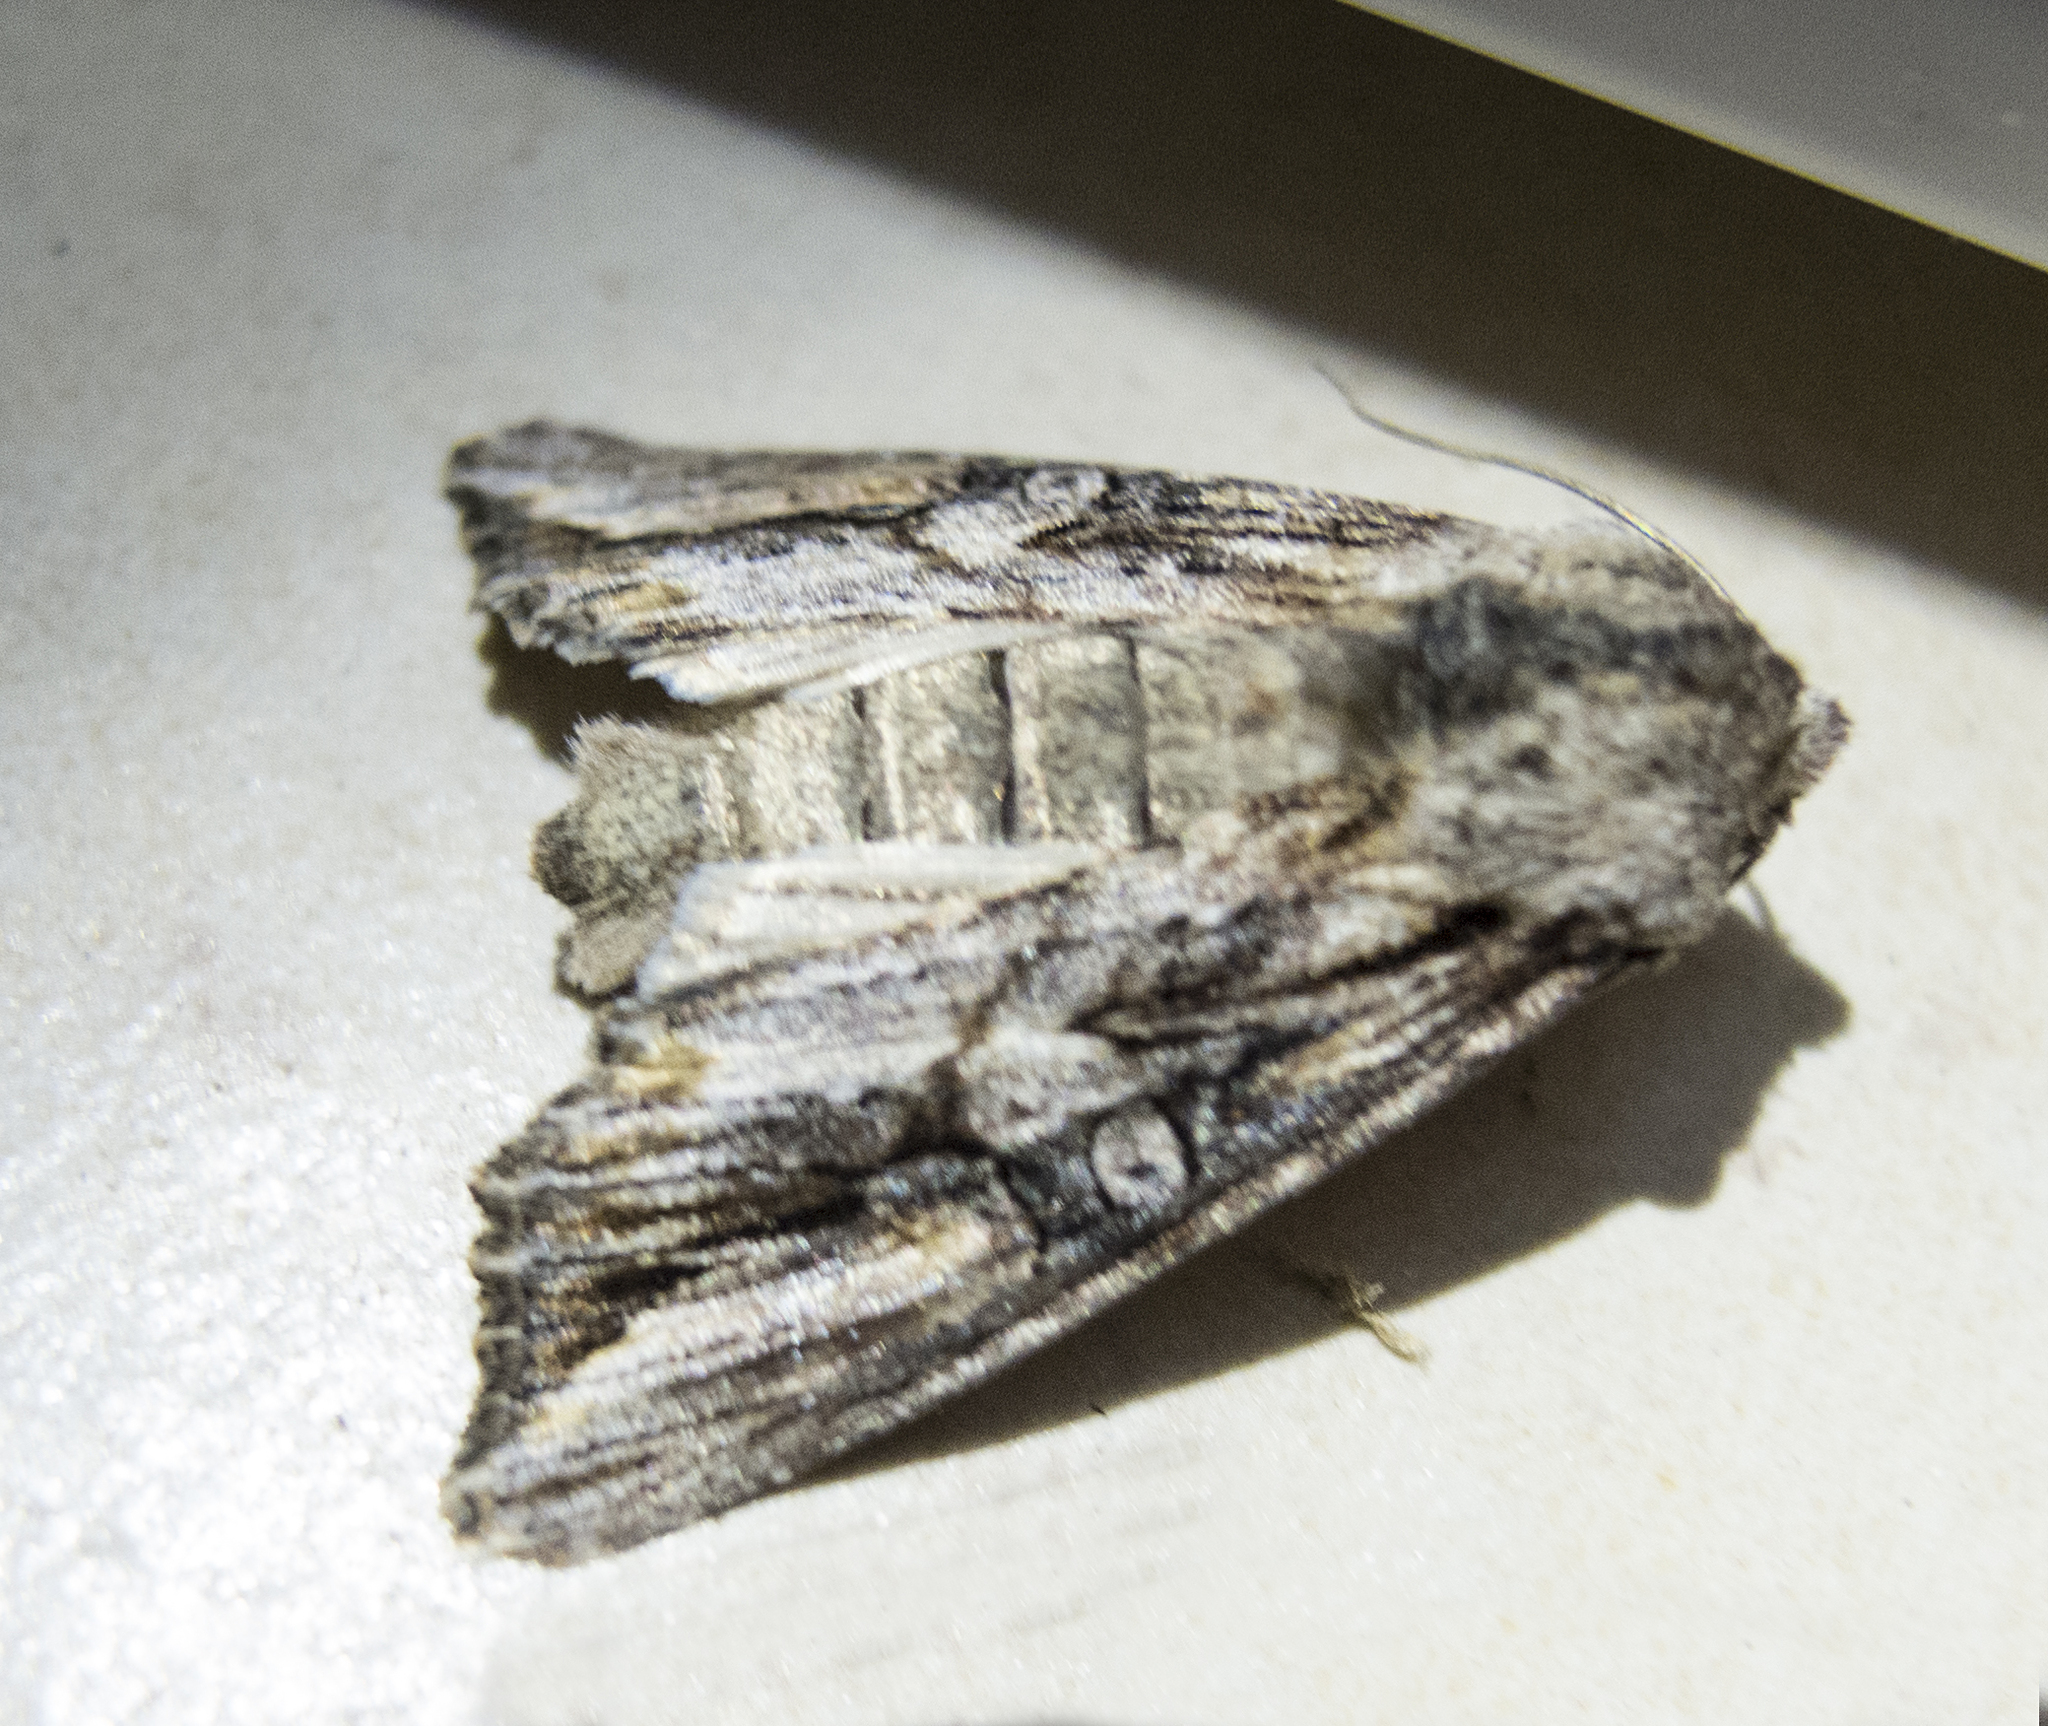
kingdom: Animalia
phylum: Arthropoda
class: Insecta
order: Lepidoptera
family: Noctuidae
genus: Egira
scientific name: Egira
